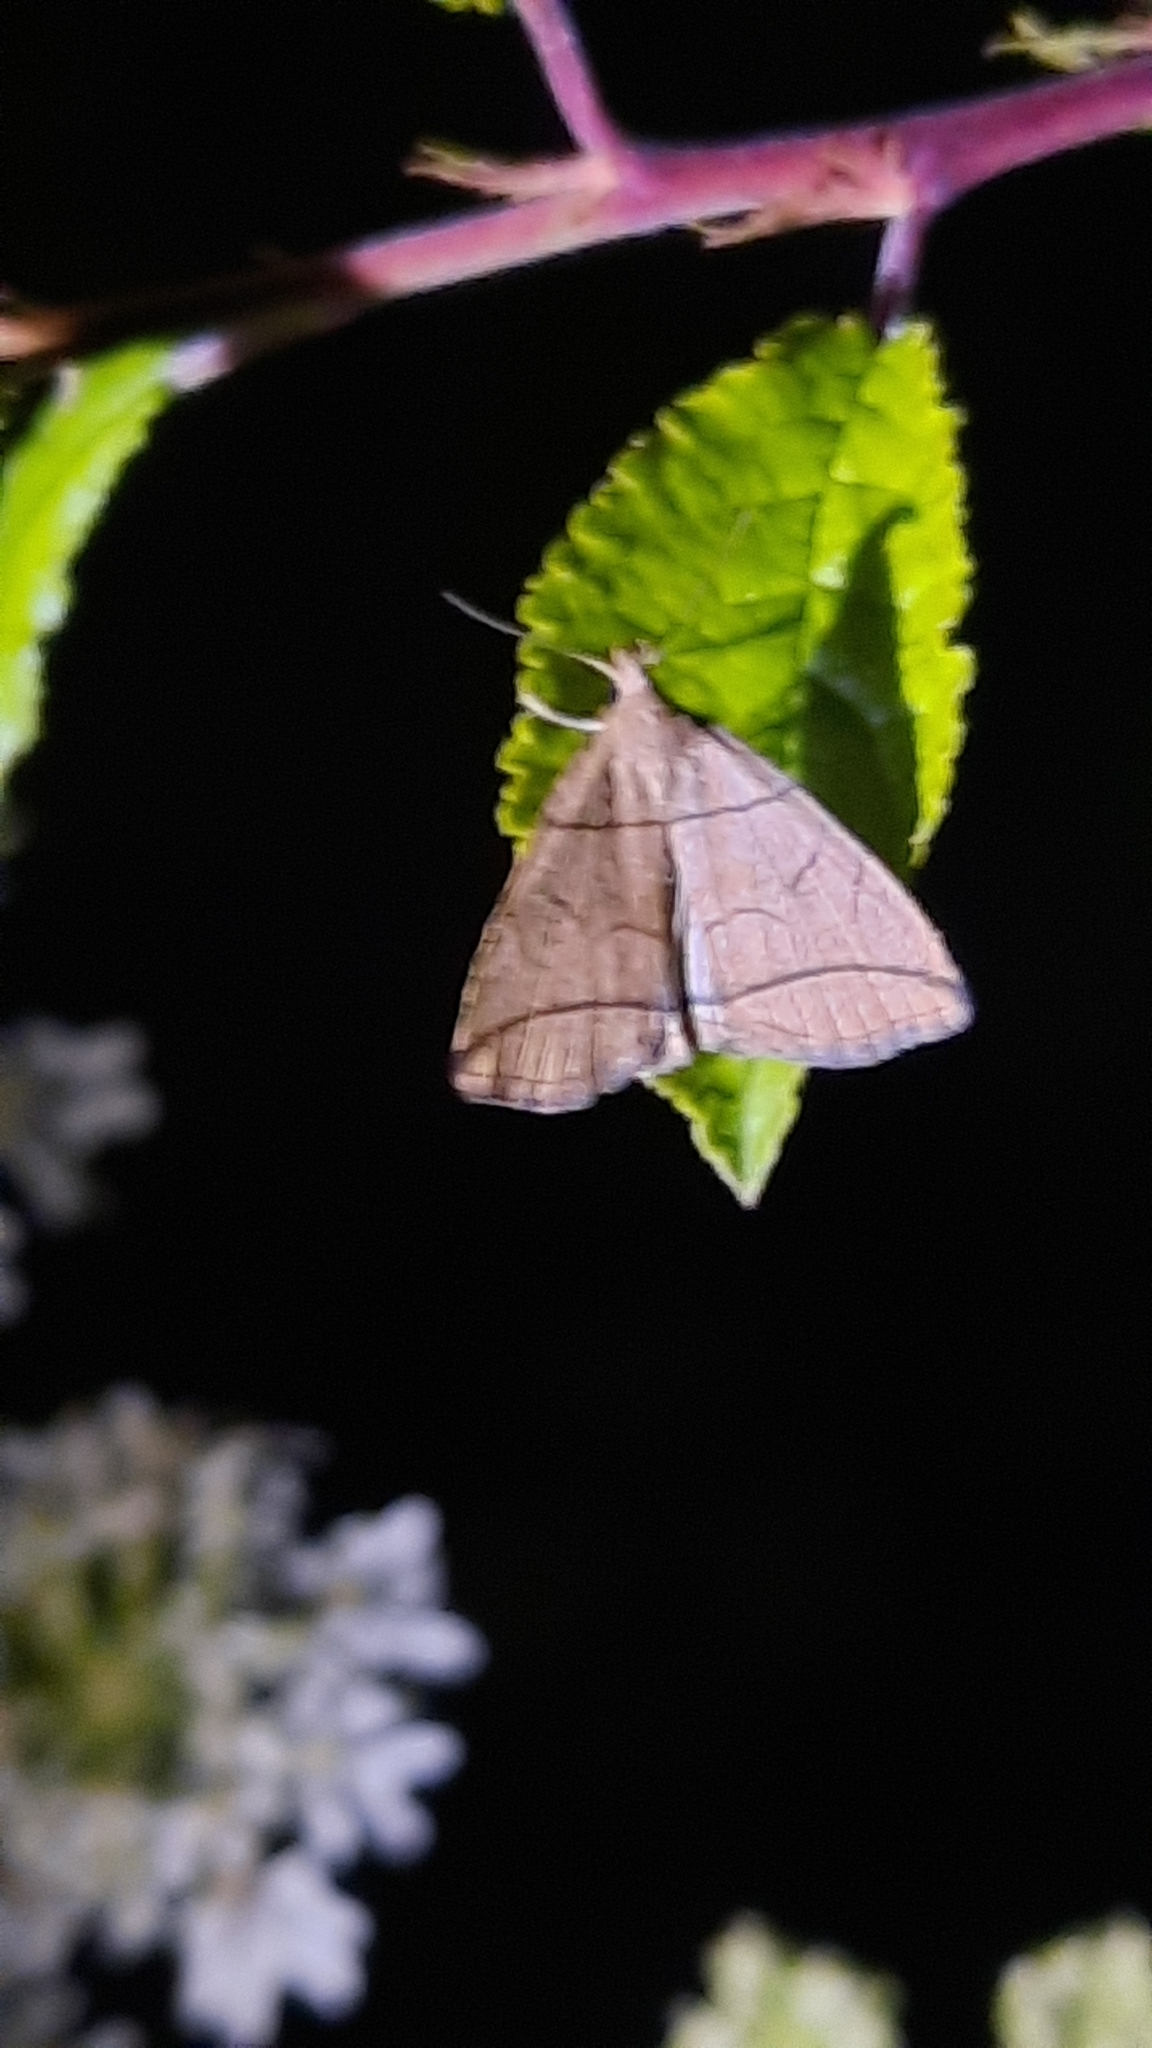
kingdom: Animalia
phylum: Arthropoda
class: Insecta
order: Lepidoptera
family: Erebidae
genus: Herminia
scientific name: Herminia grisealis
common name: Small fan-foot
